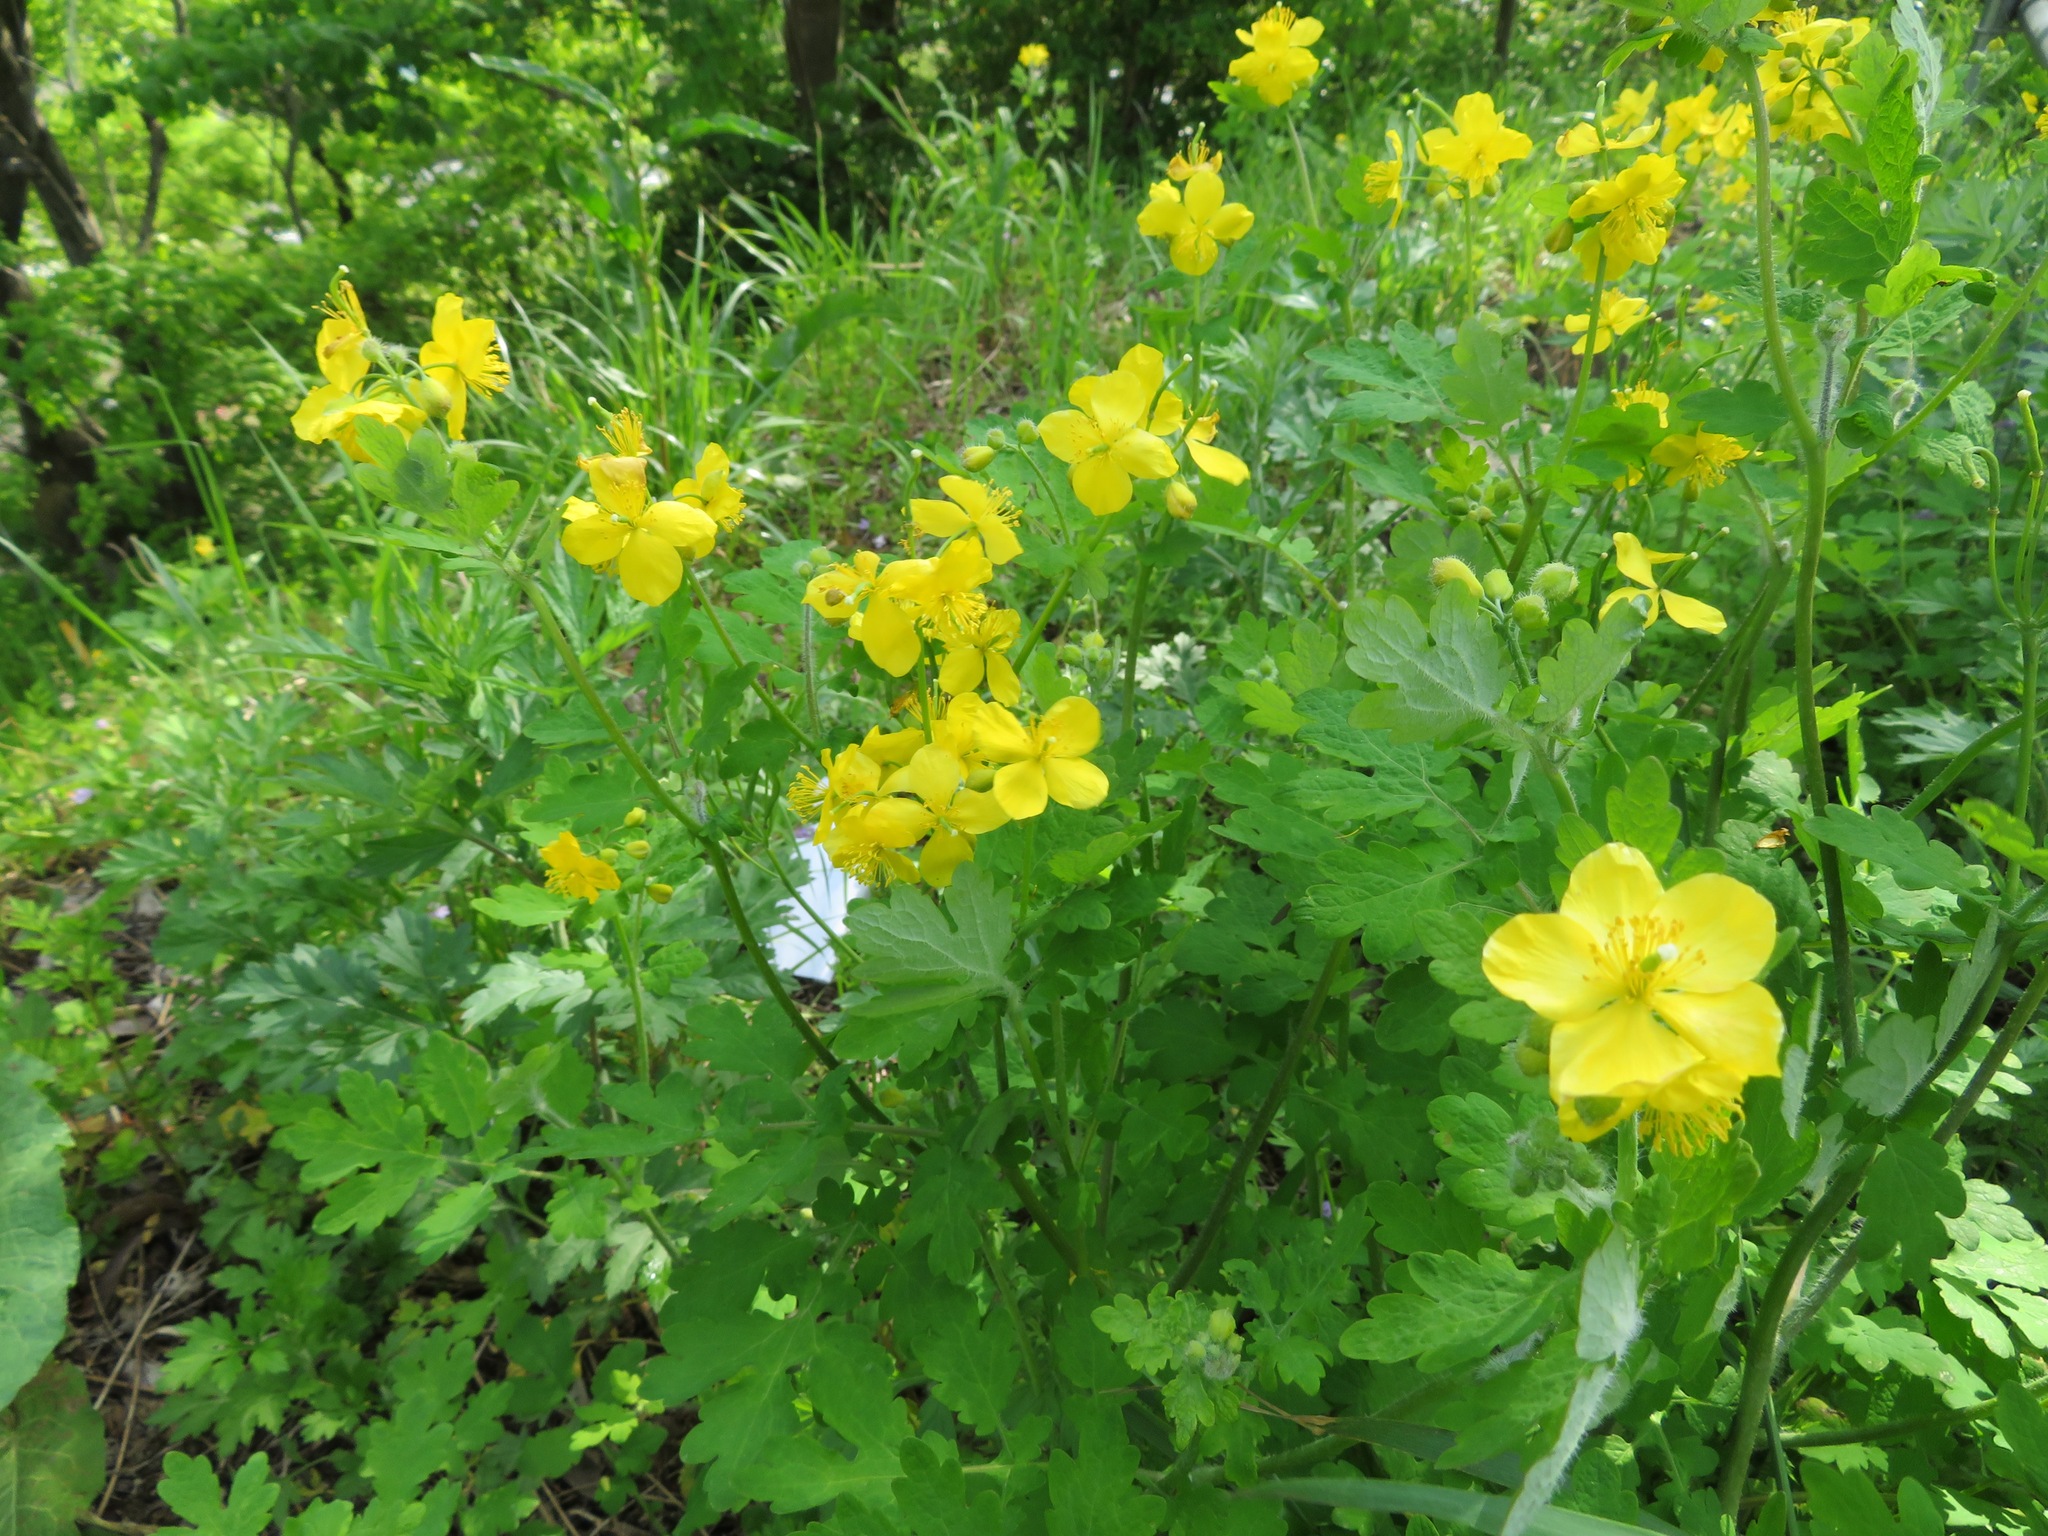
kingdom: Plantae
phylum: Tracheophyta
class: Magnoliopsida
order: Ranunculales
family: Papaveraceae
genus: Chelidonium
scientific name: Chelidonium majus
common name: Greater celandine
